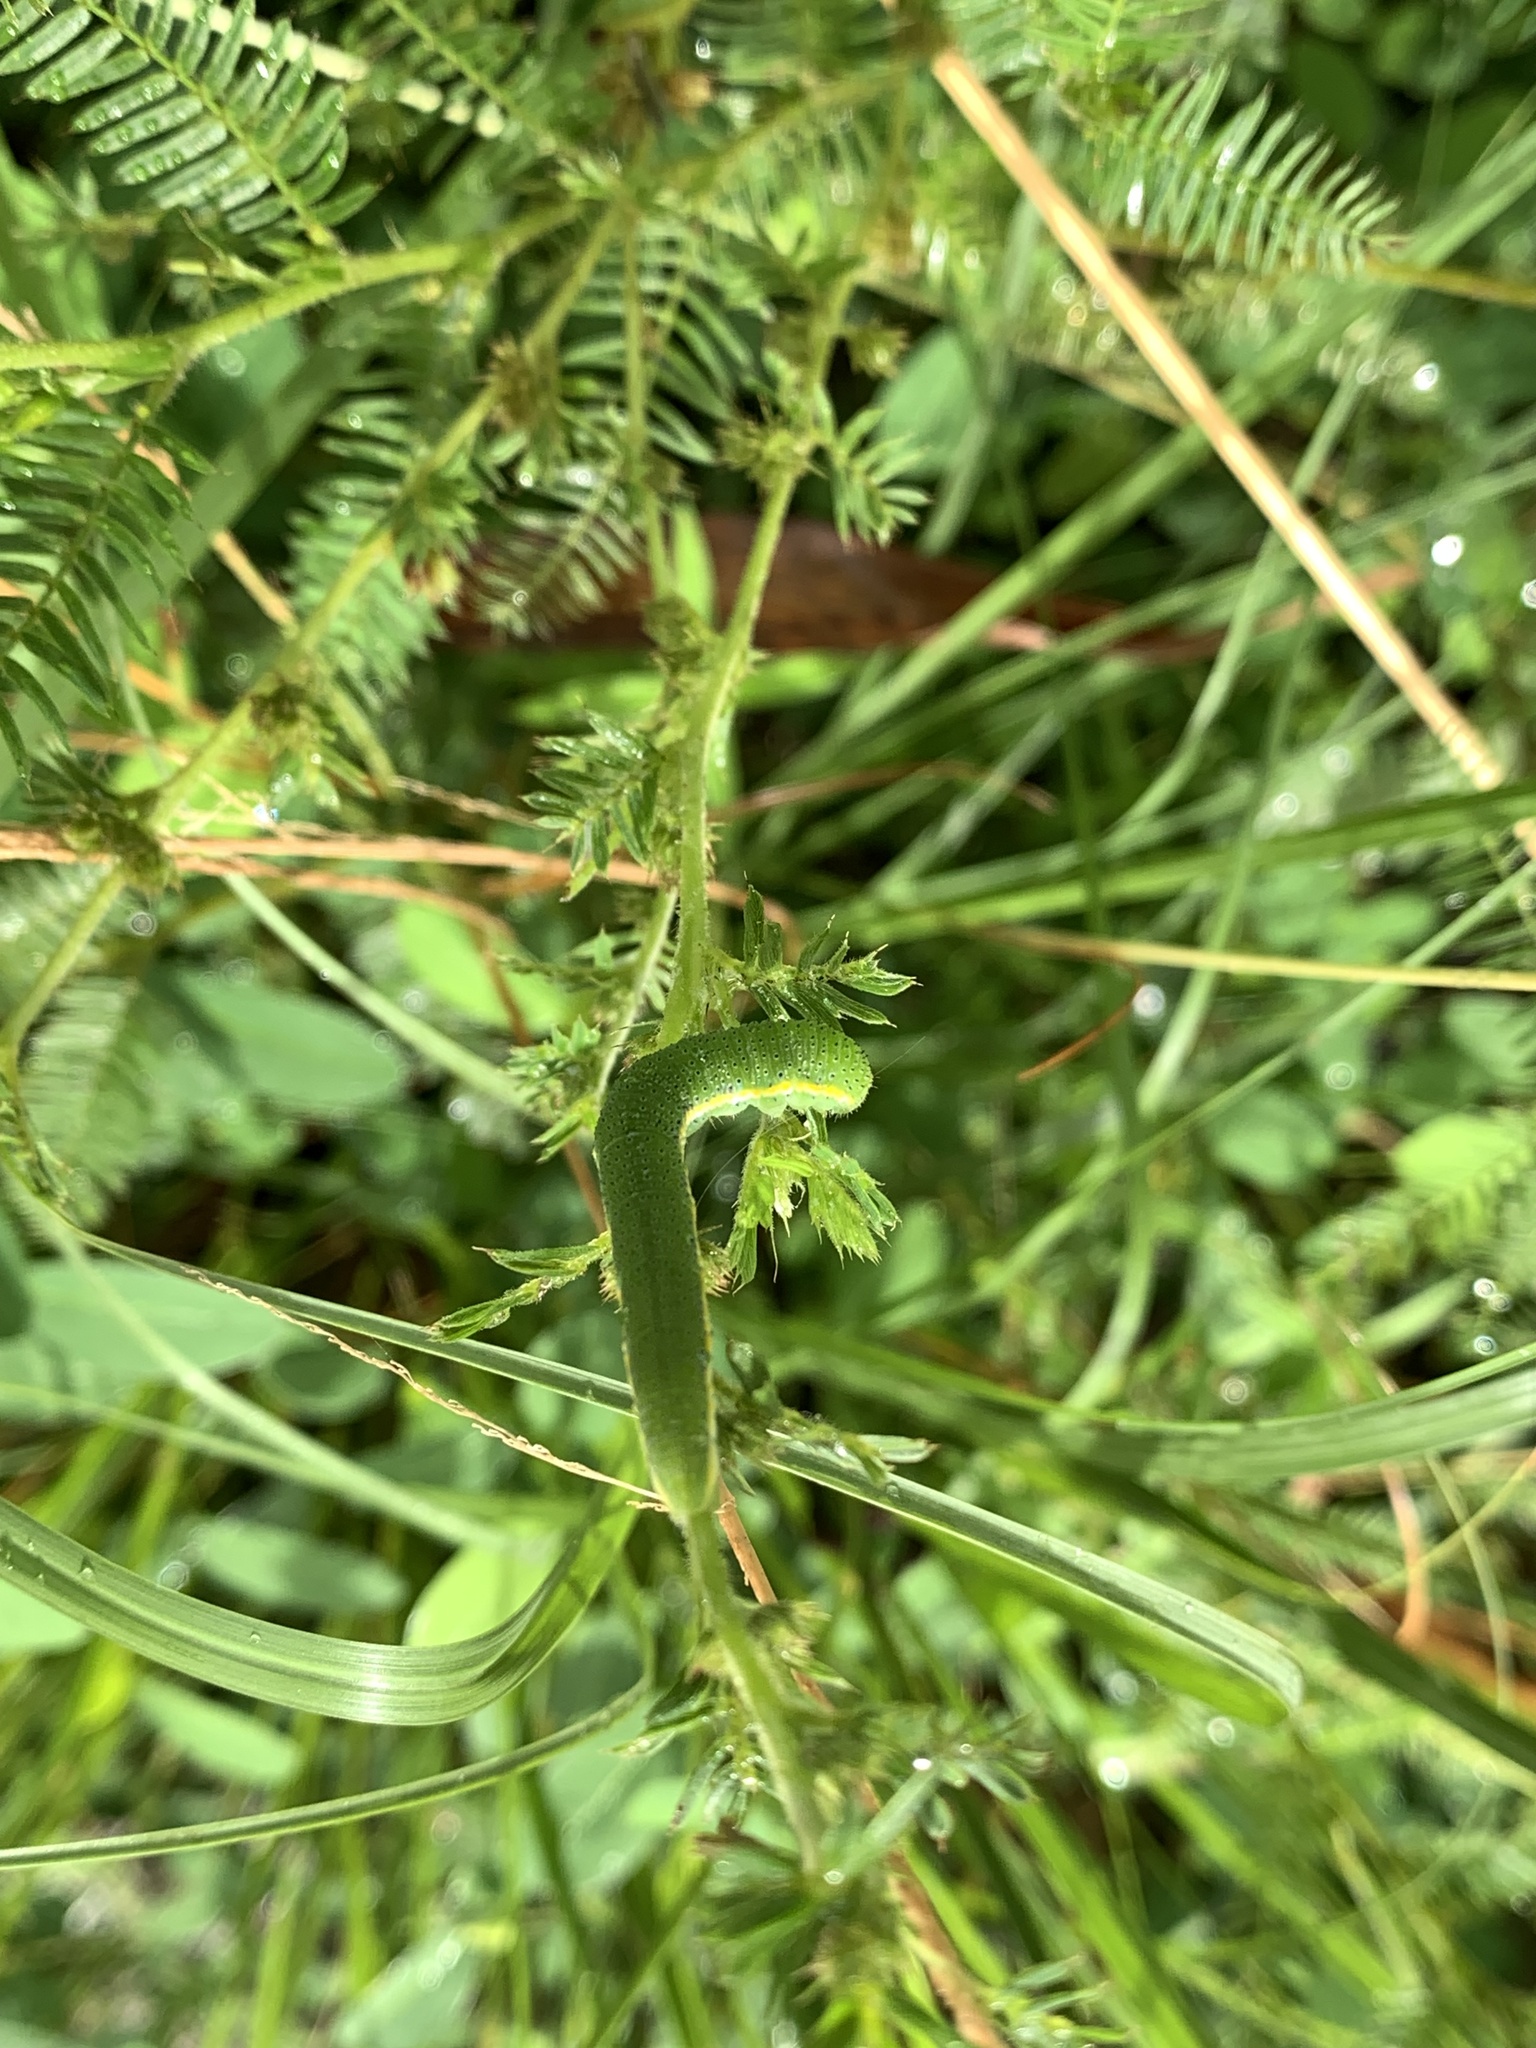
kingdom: Animalia
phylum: Arthropoda
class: Insecta
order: Lepidoptera
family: Pieridae
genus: Phoebis
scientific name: Phoebis philea
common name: Orange-barred giant sulphur
